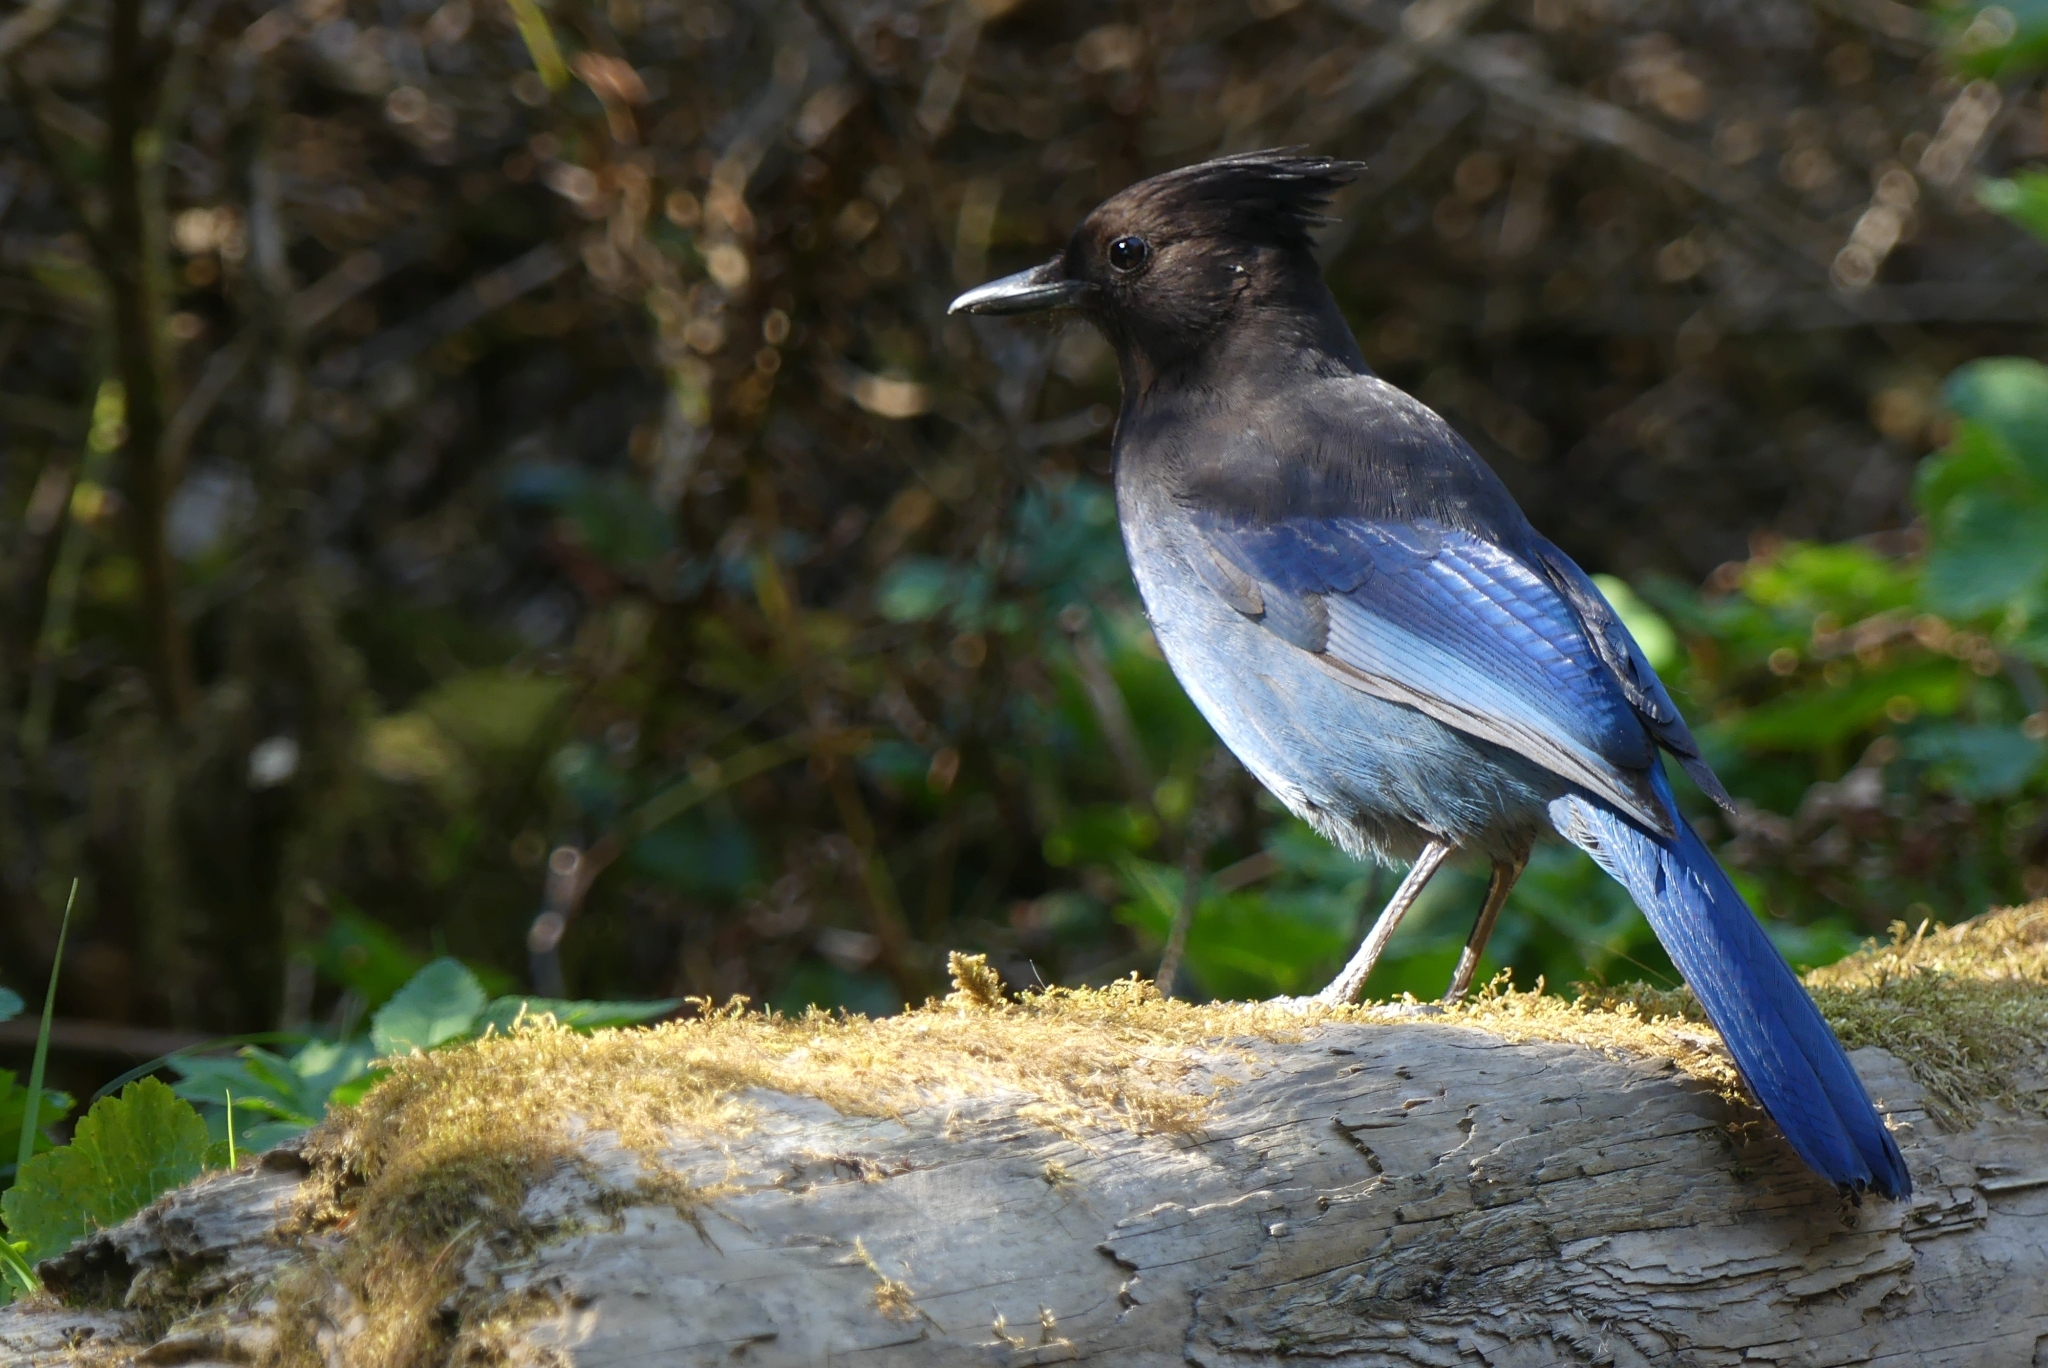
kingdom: Animalia
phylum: Chordata
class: Aves
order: Passeriformes
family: Corvidae
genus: Cyanocitta
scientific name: Cyanocitta stelleri
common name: Steller's jay
